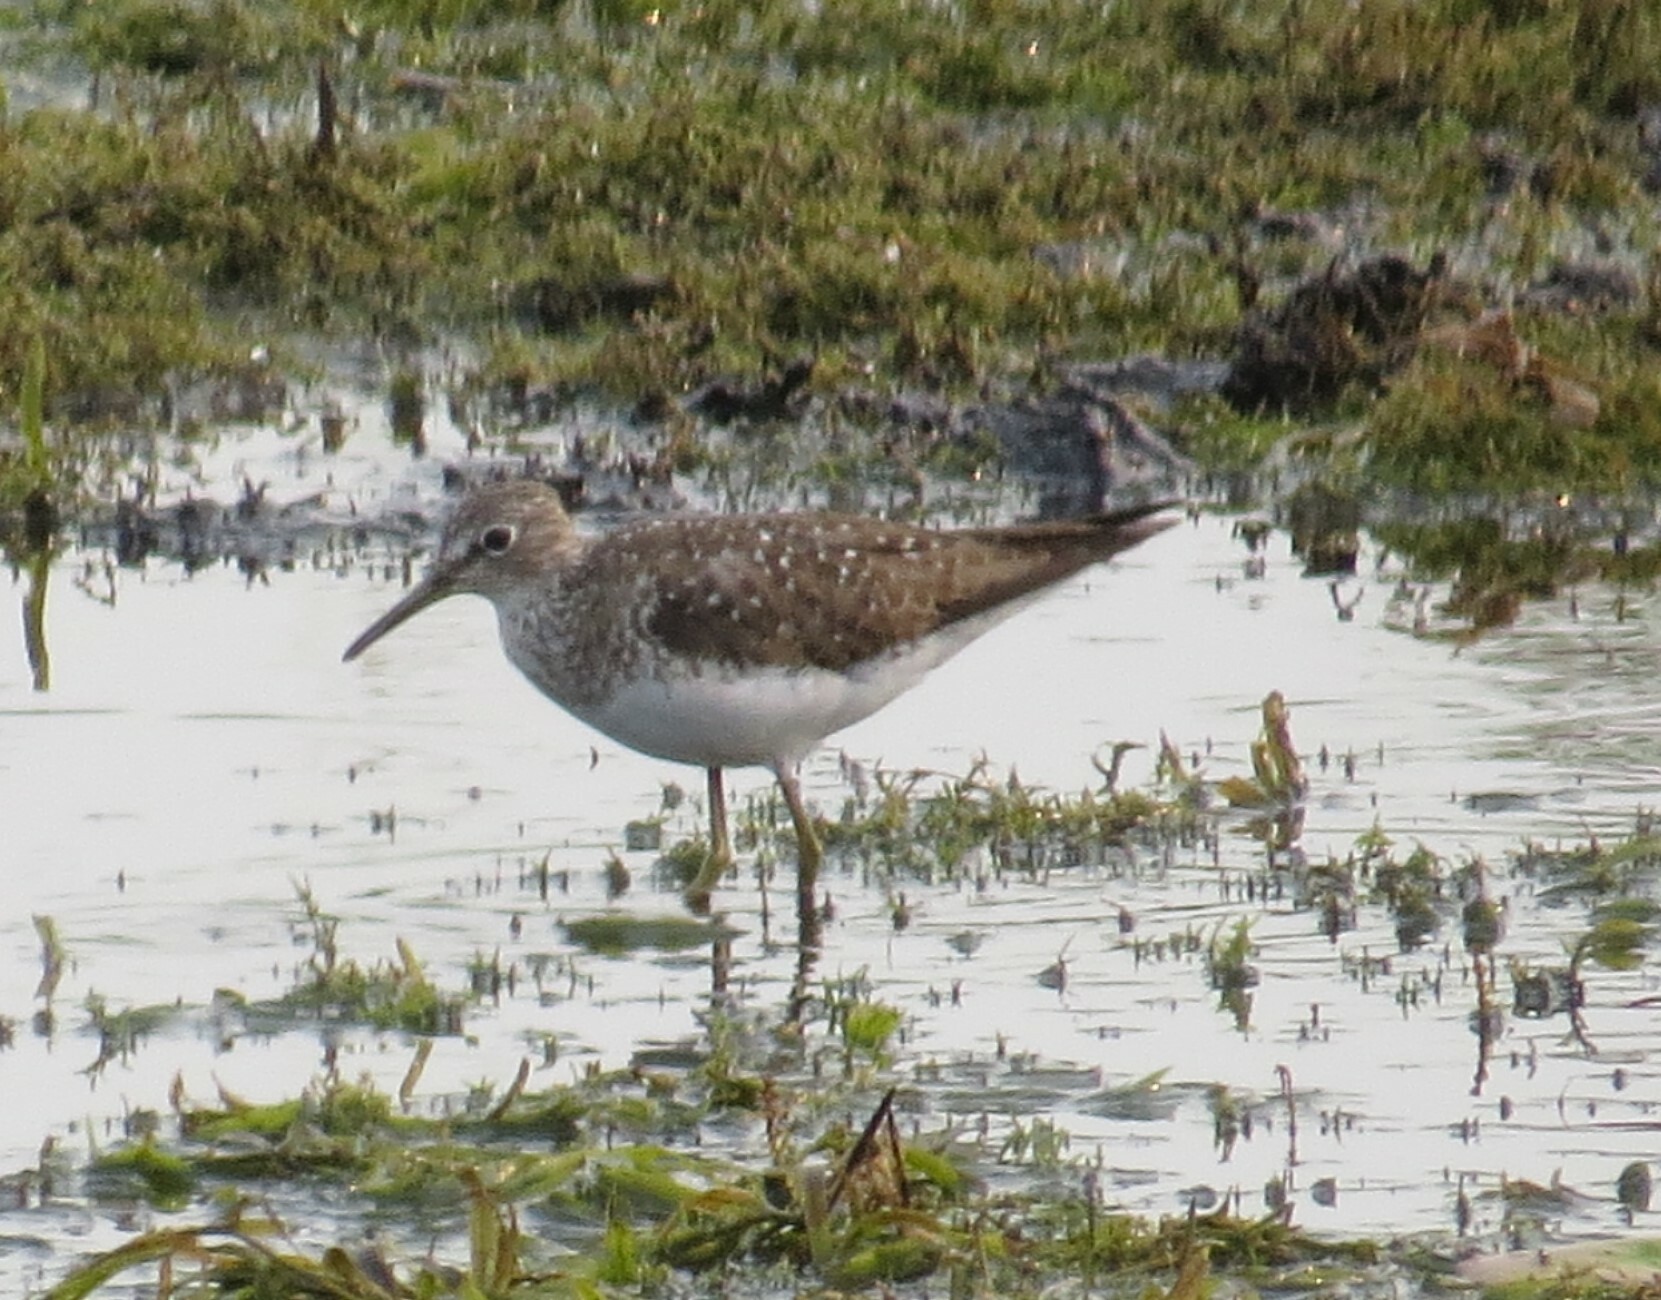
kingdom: Animalia
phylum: Chordata
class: Aves
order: Charadriiformes
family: Scolopacidae
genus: Tringa
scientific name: Tringa solitaria
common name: Solitary sandpiper
